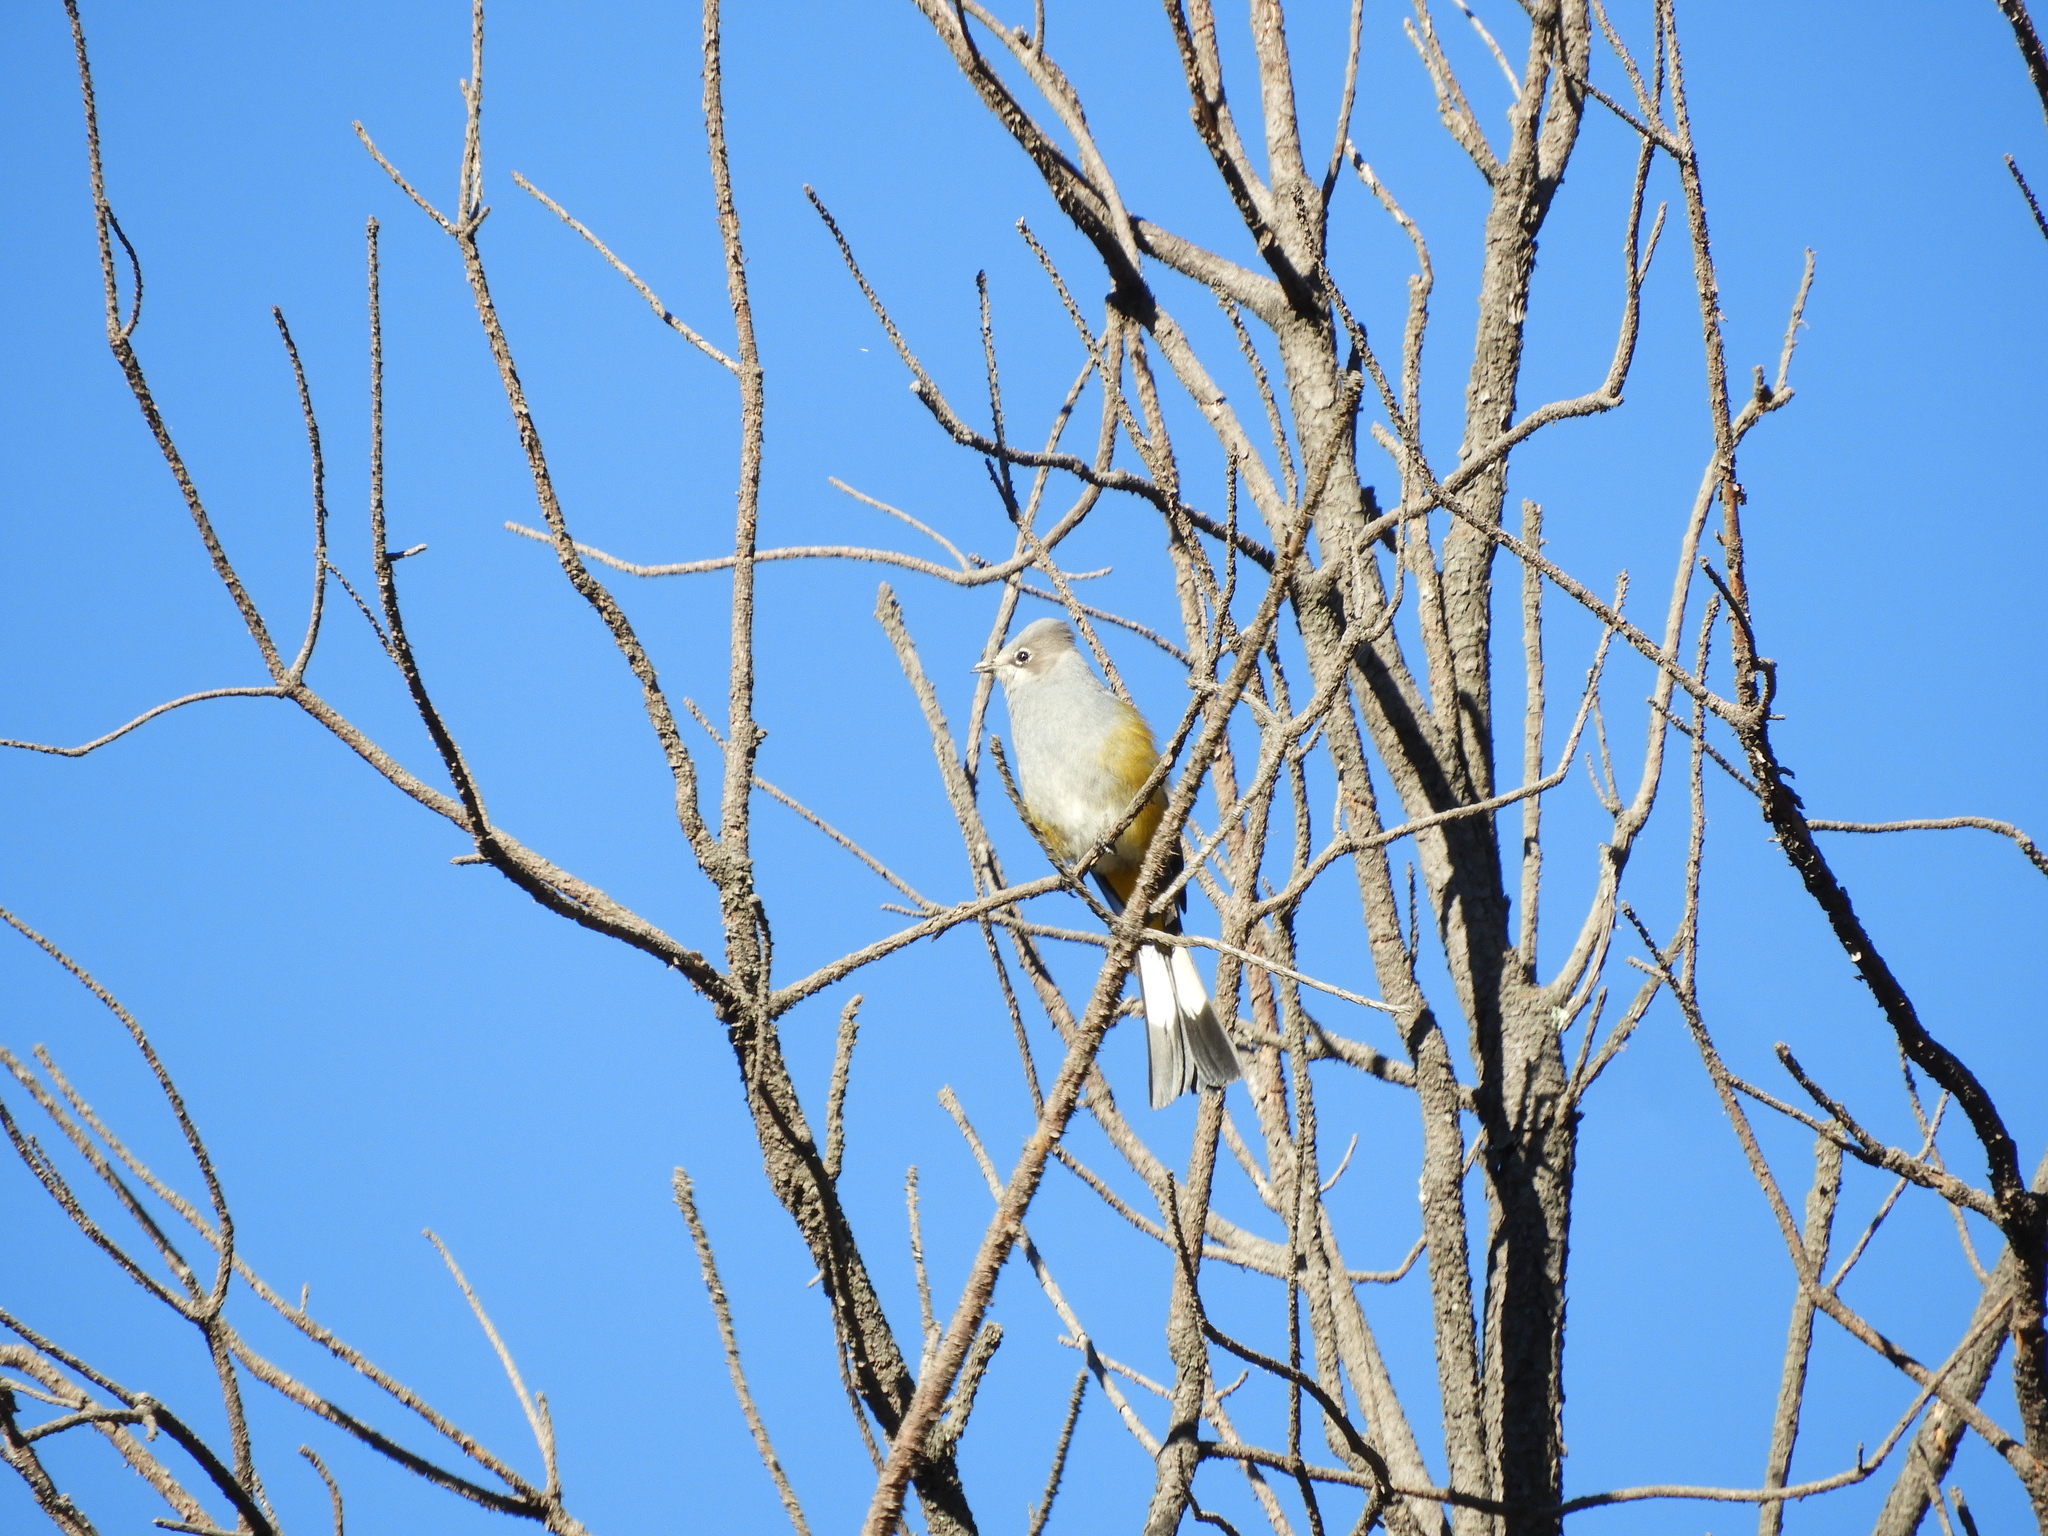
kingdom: Animalia
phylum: Chordata
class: Aves
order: Passeriformes
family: Ptilogonatidae
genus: Ptilogonys
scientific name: Ptilogonys cinereus
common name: Gray silky-flycatcher
